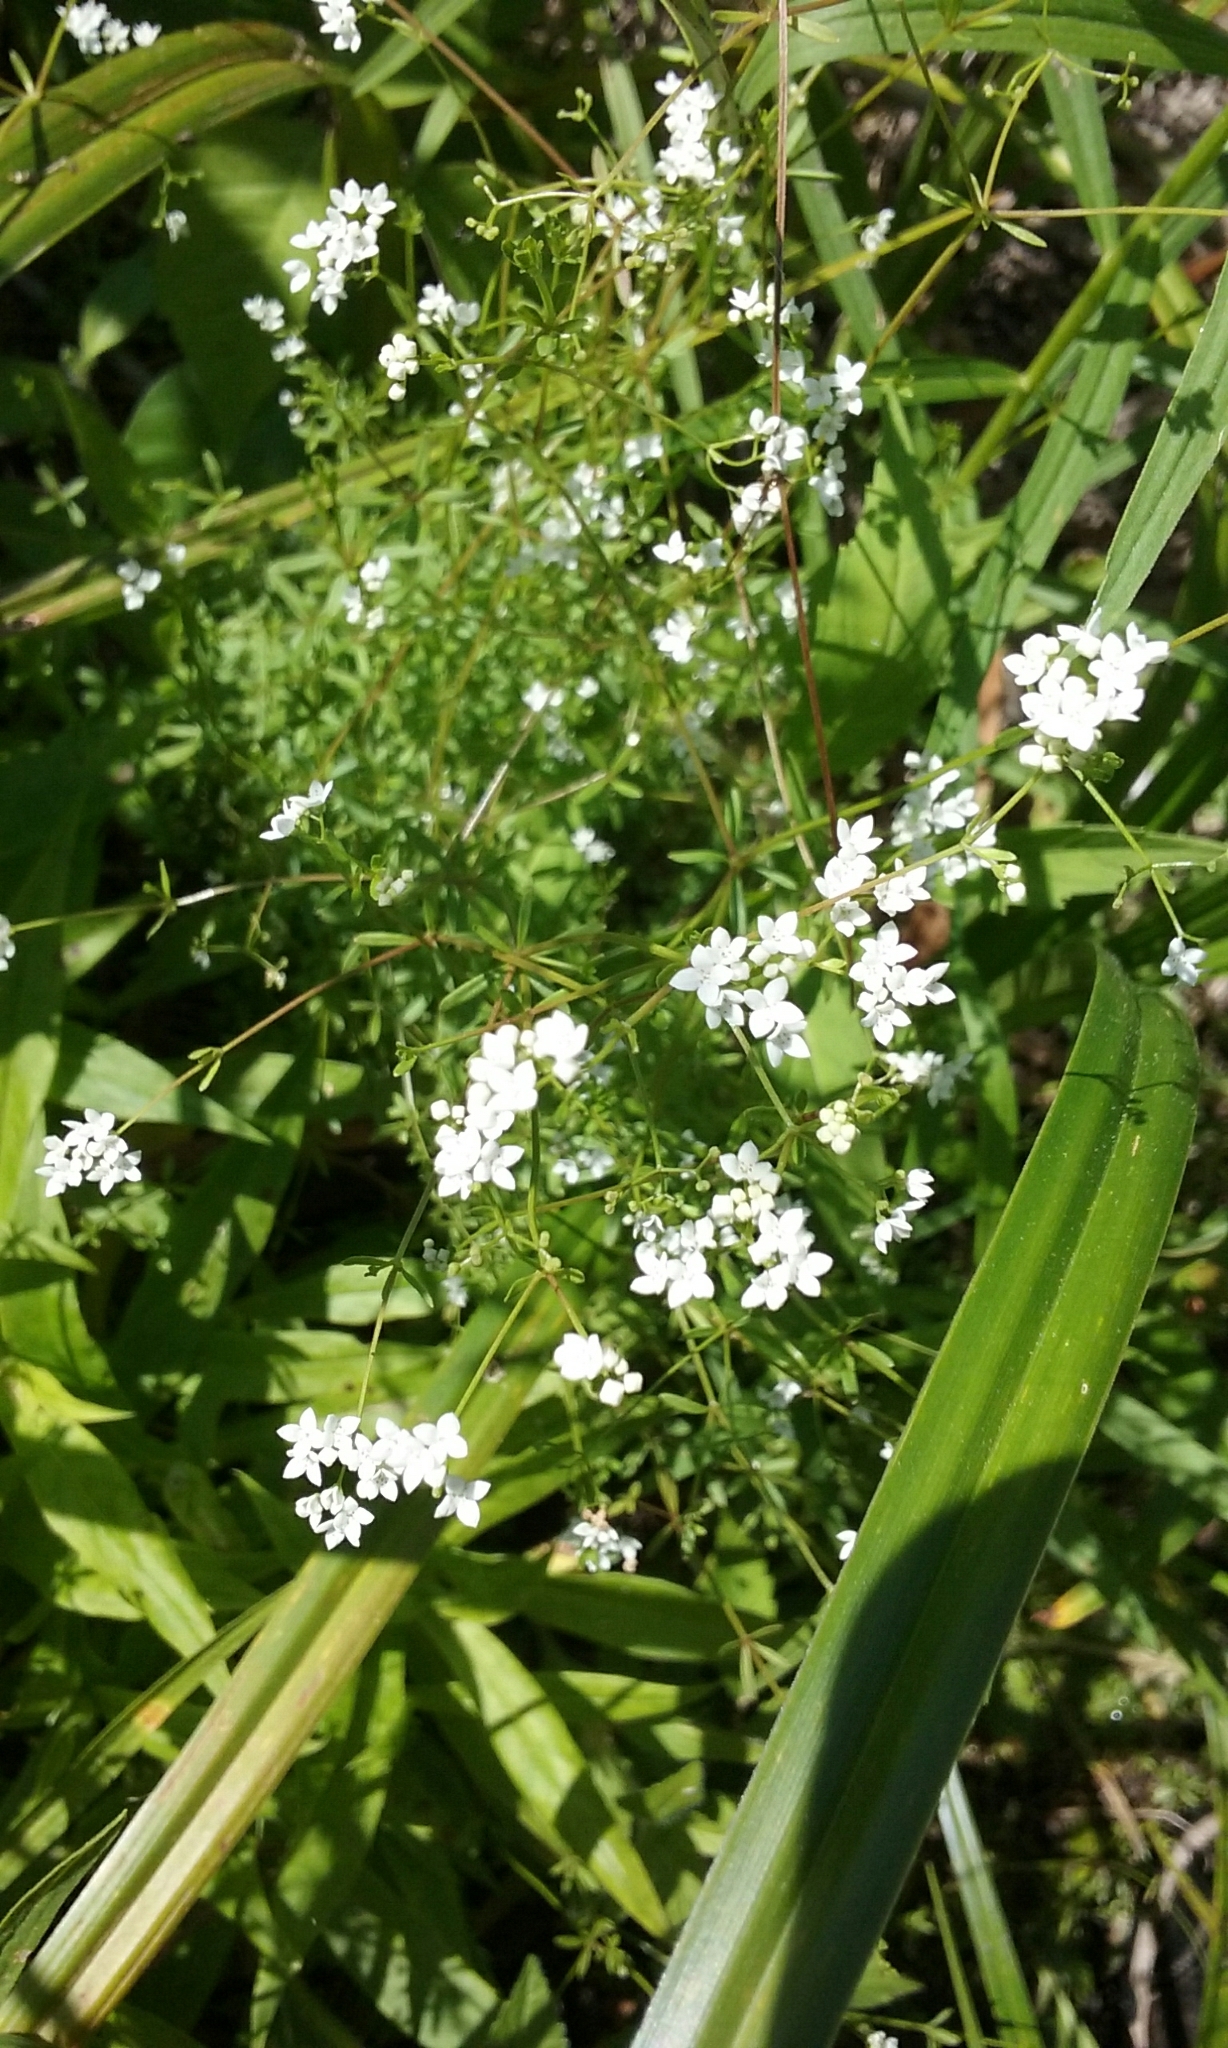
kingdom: Plantae
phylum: Tracheophyta
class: Magnoliopsida
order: Gentianales
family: Rubiaceae
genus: Galium
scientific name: Galium palustre
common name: Common marsh-bedstraw
